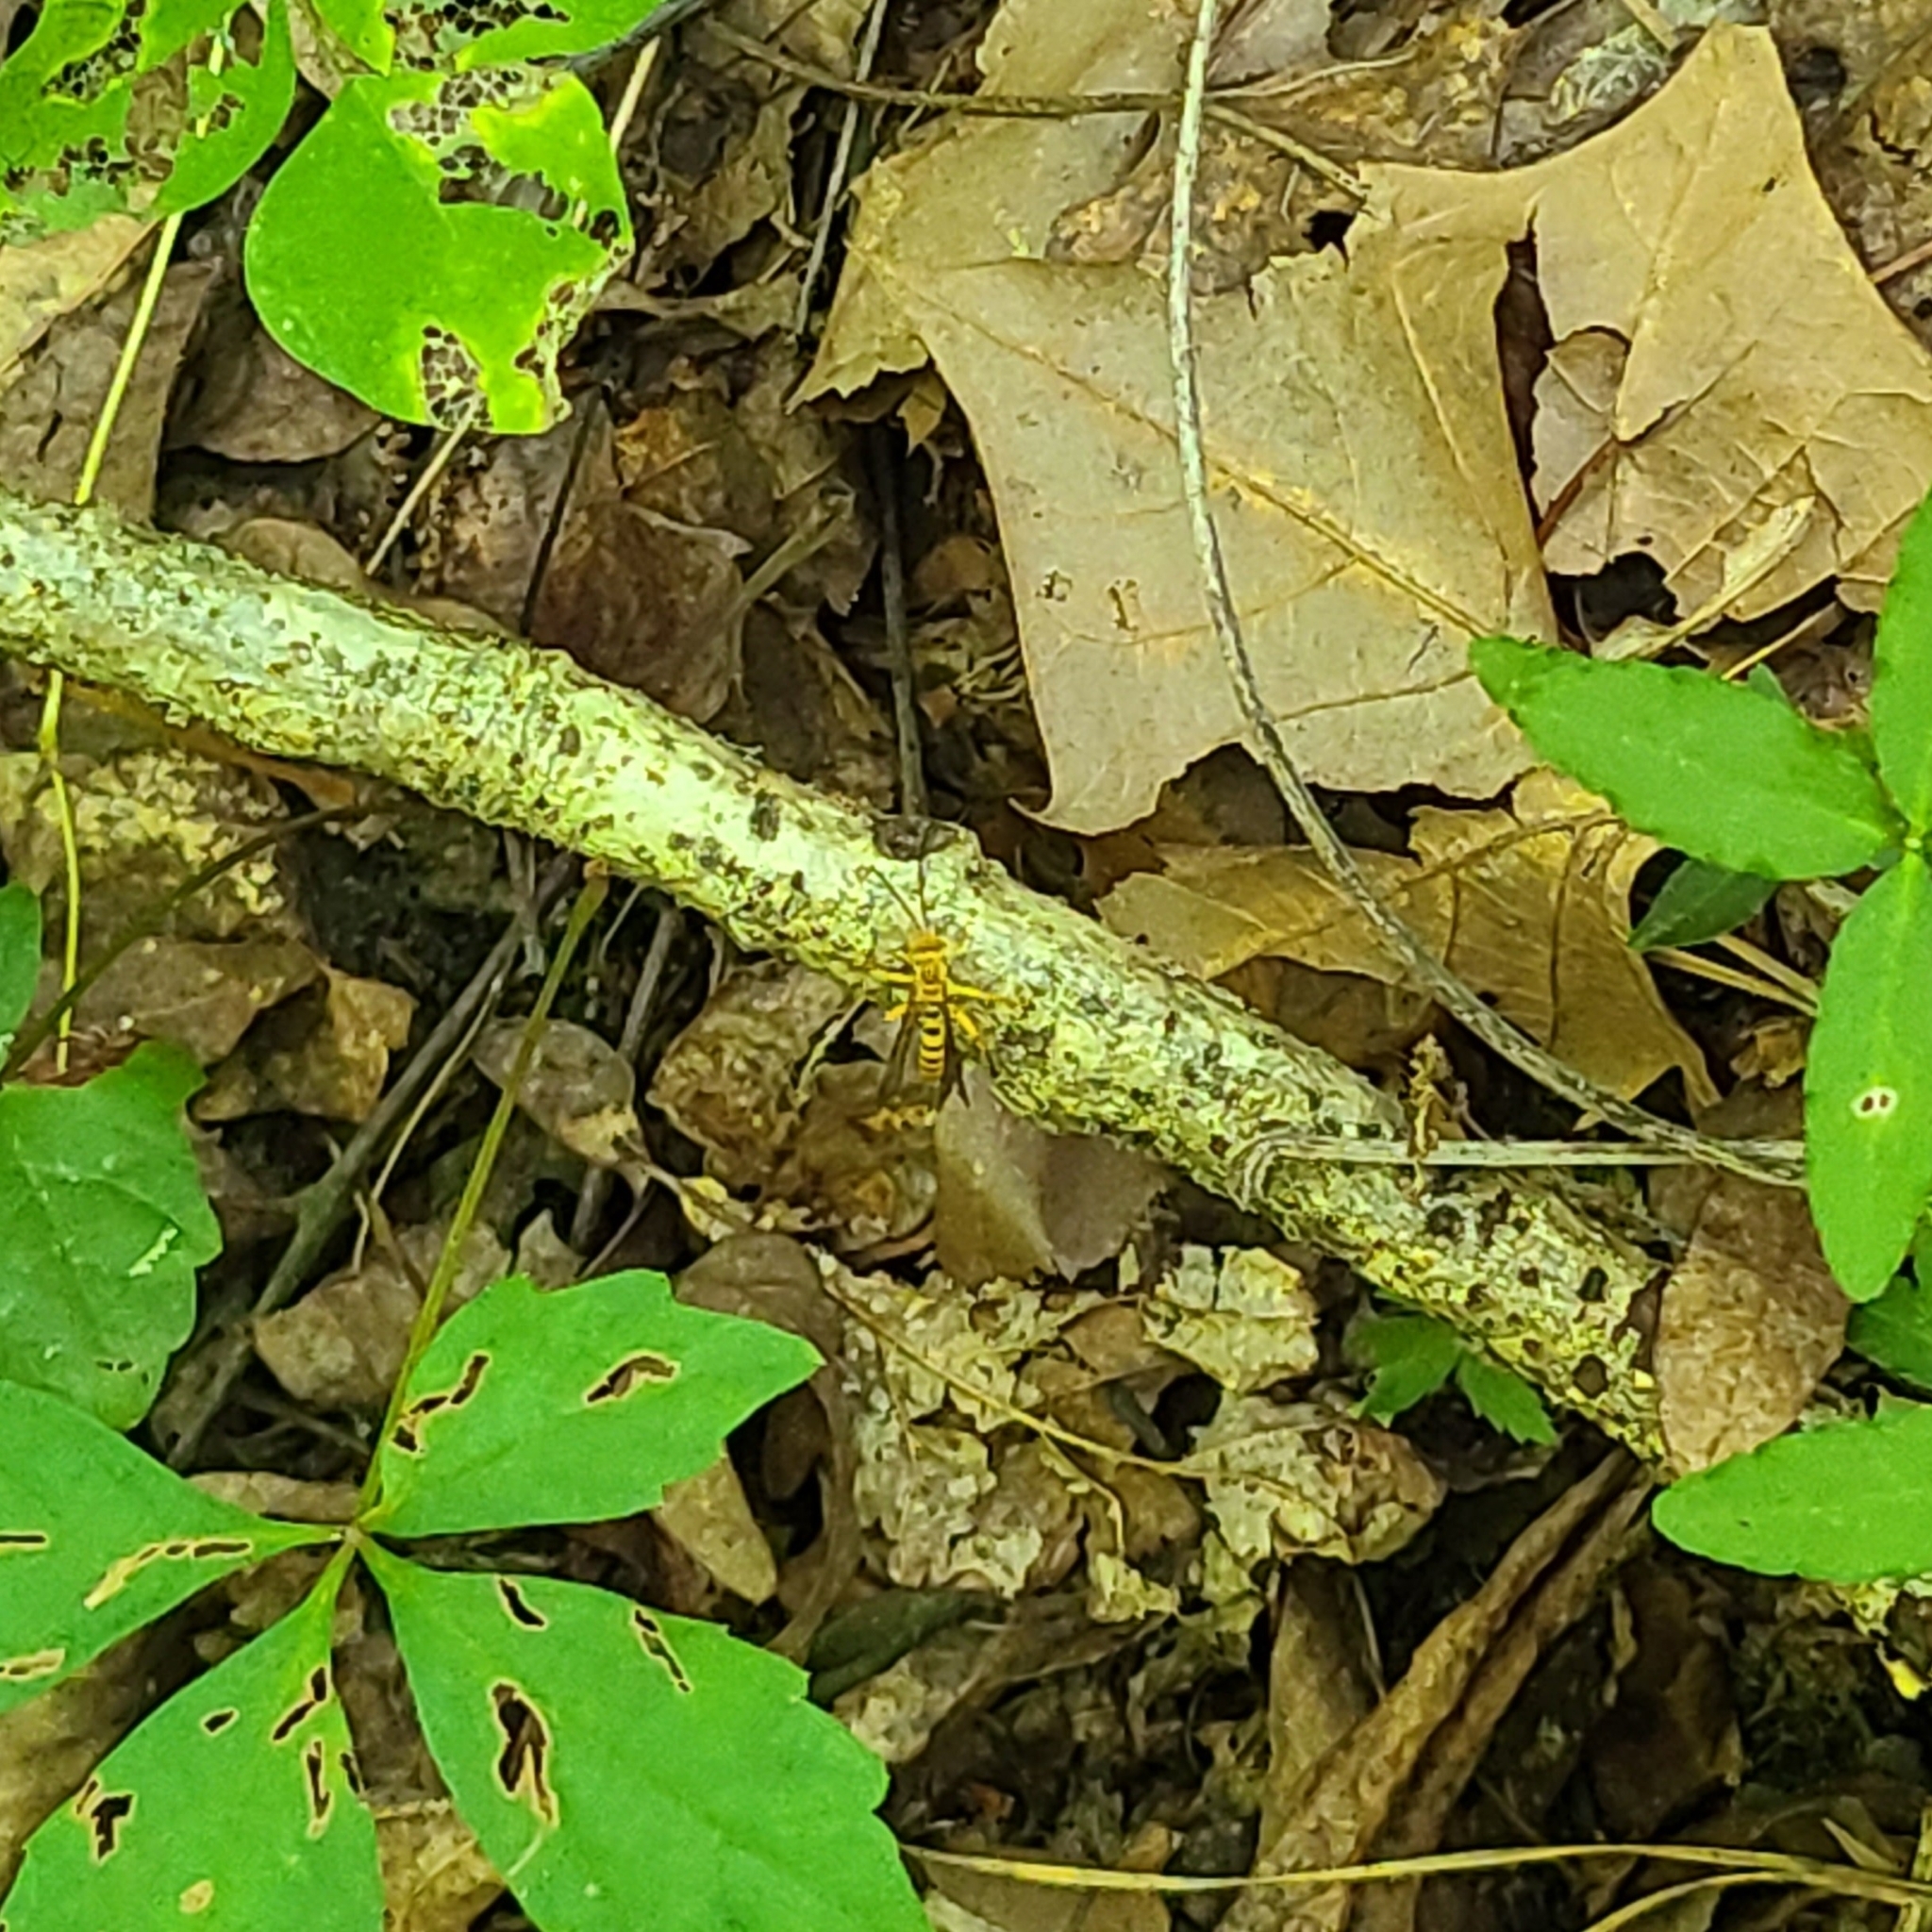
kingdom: Animalia
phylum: Arthropoda
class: Insecta
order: Hymenoptera
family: Ichneumonidae
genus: Neotheronia
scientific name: Neotheronia septemtrionalis
